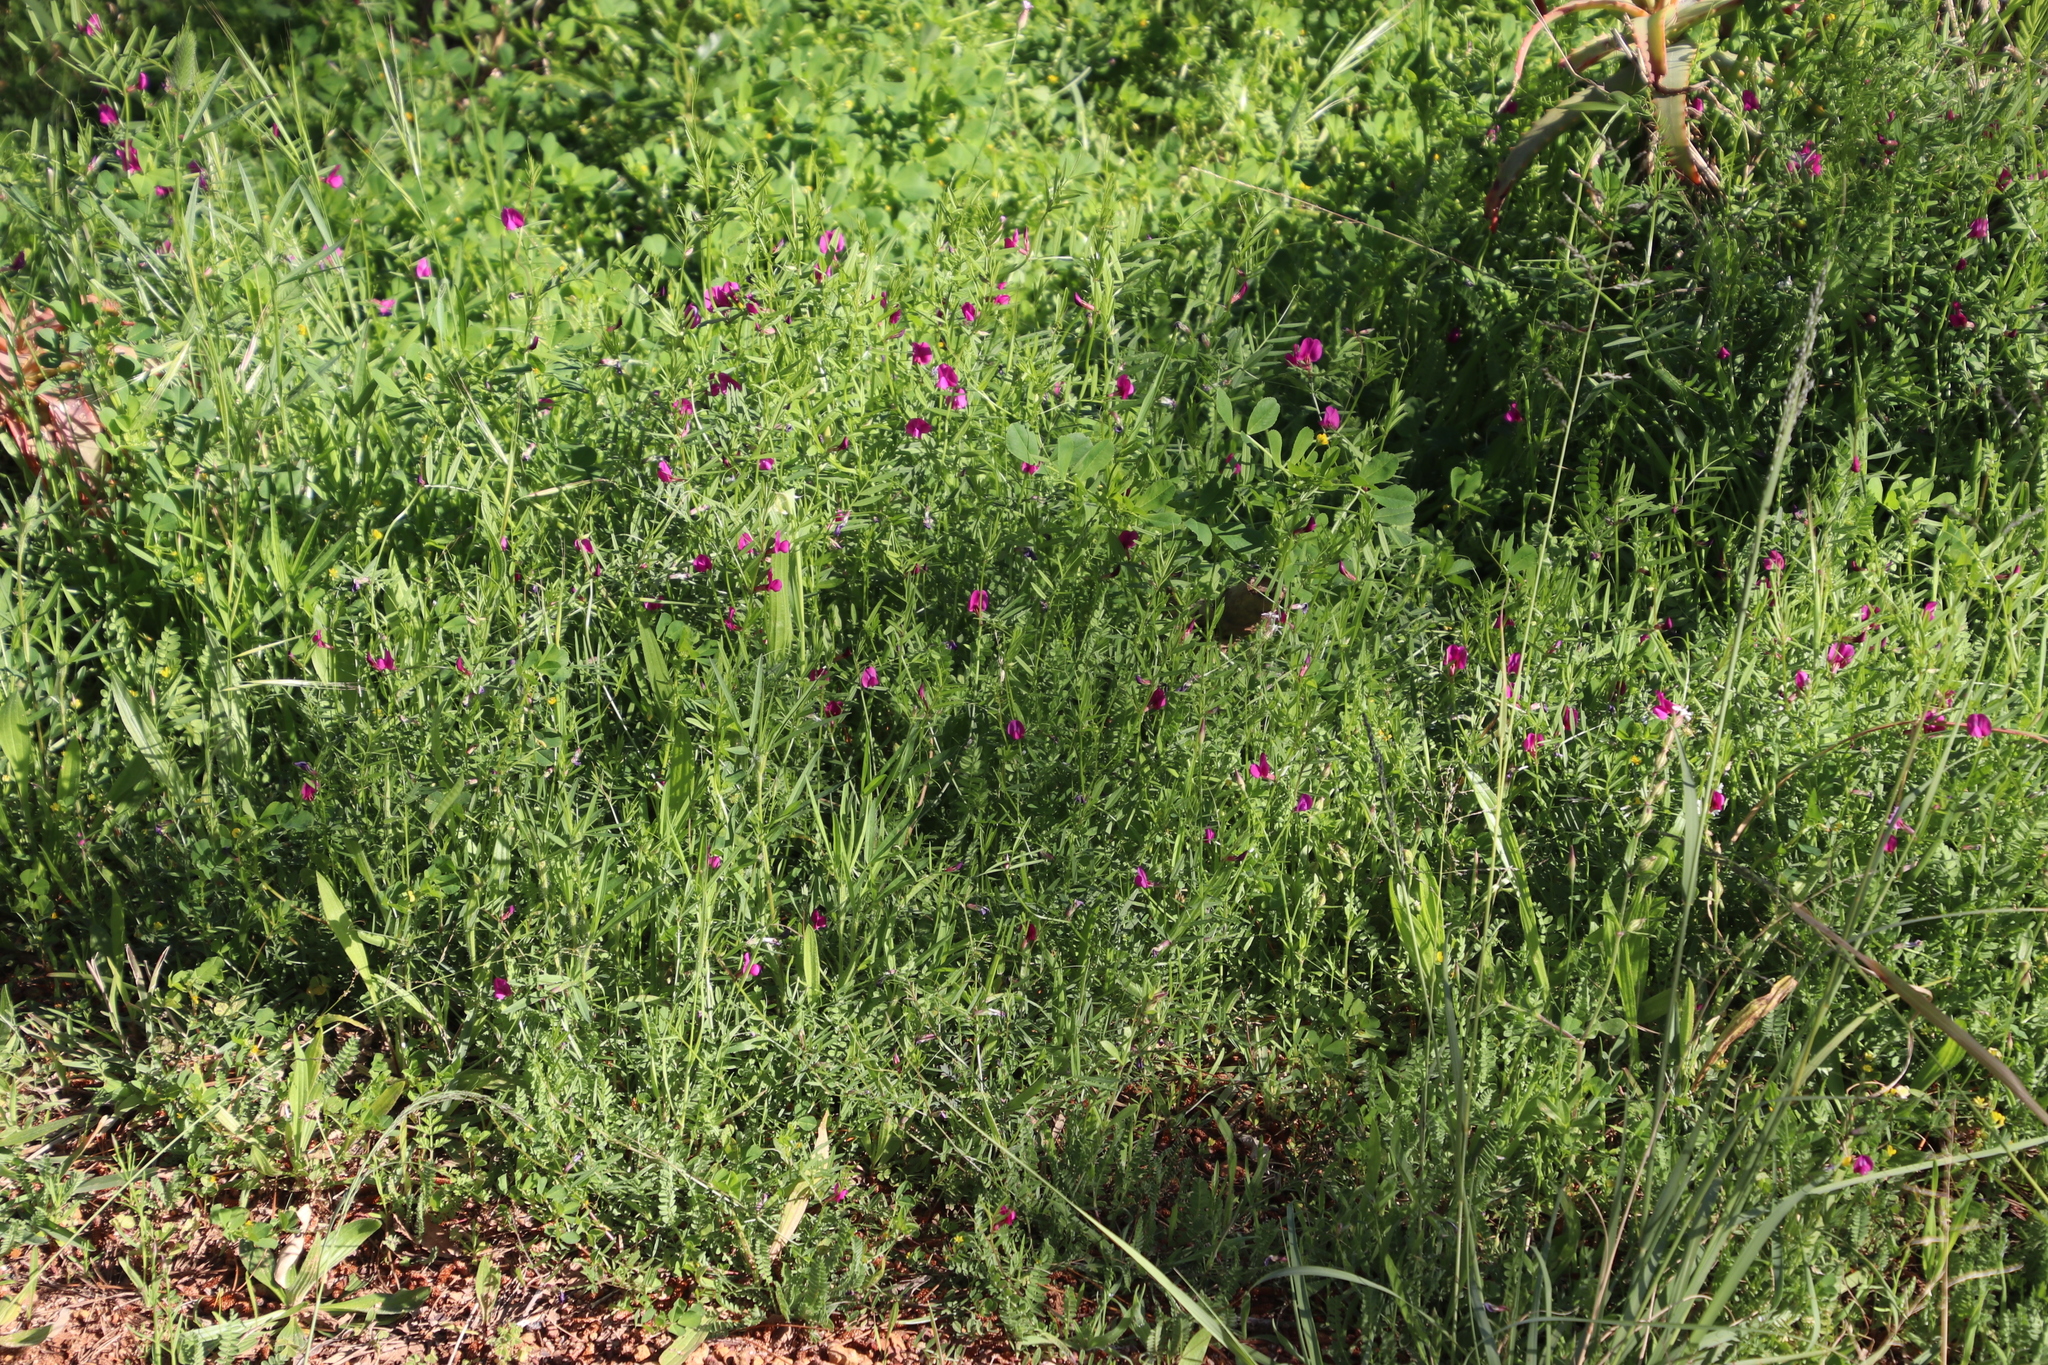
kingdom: Plantae
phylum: Tracheophyta
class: Magnoliopsida
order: Fabales
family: Fabaceae
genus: Vicia
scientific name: Vicia sativa
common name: Garden vetch
